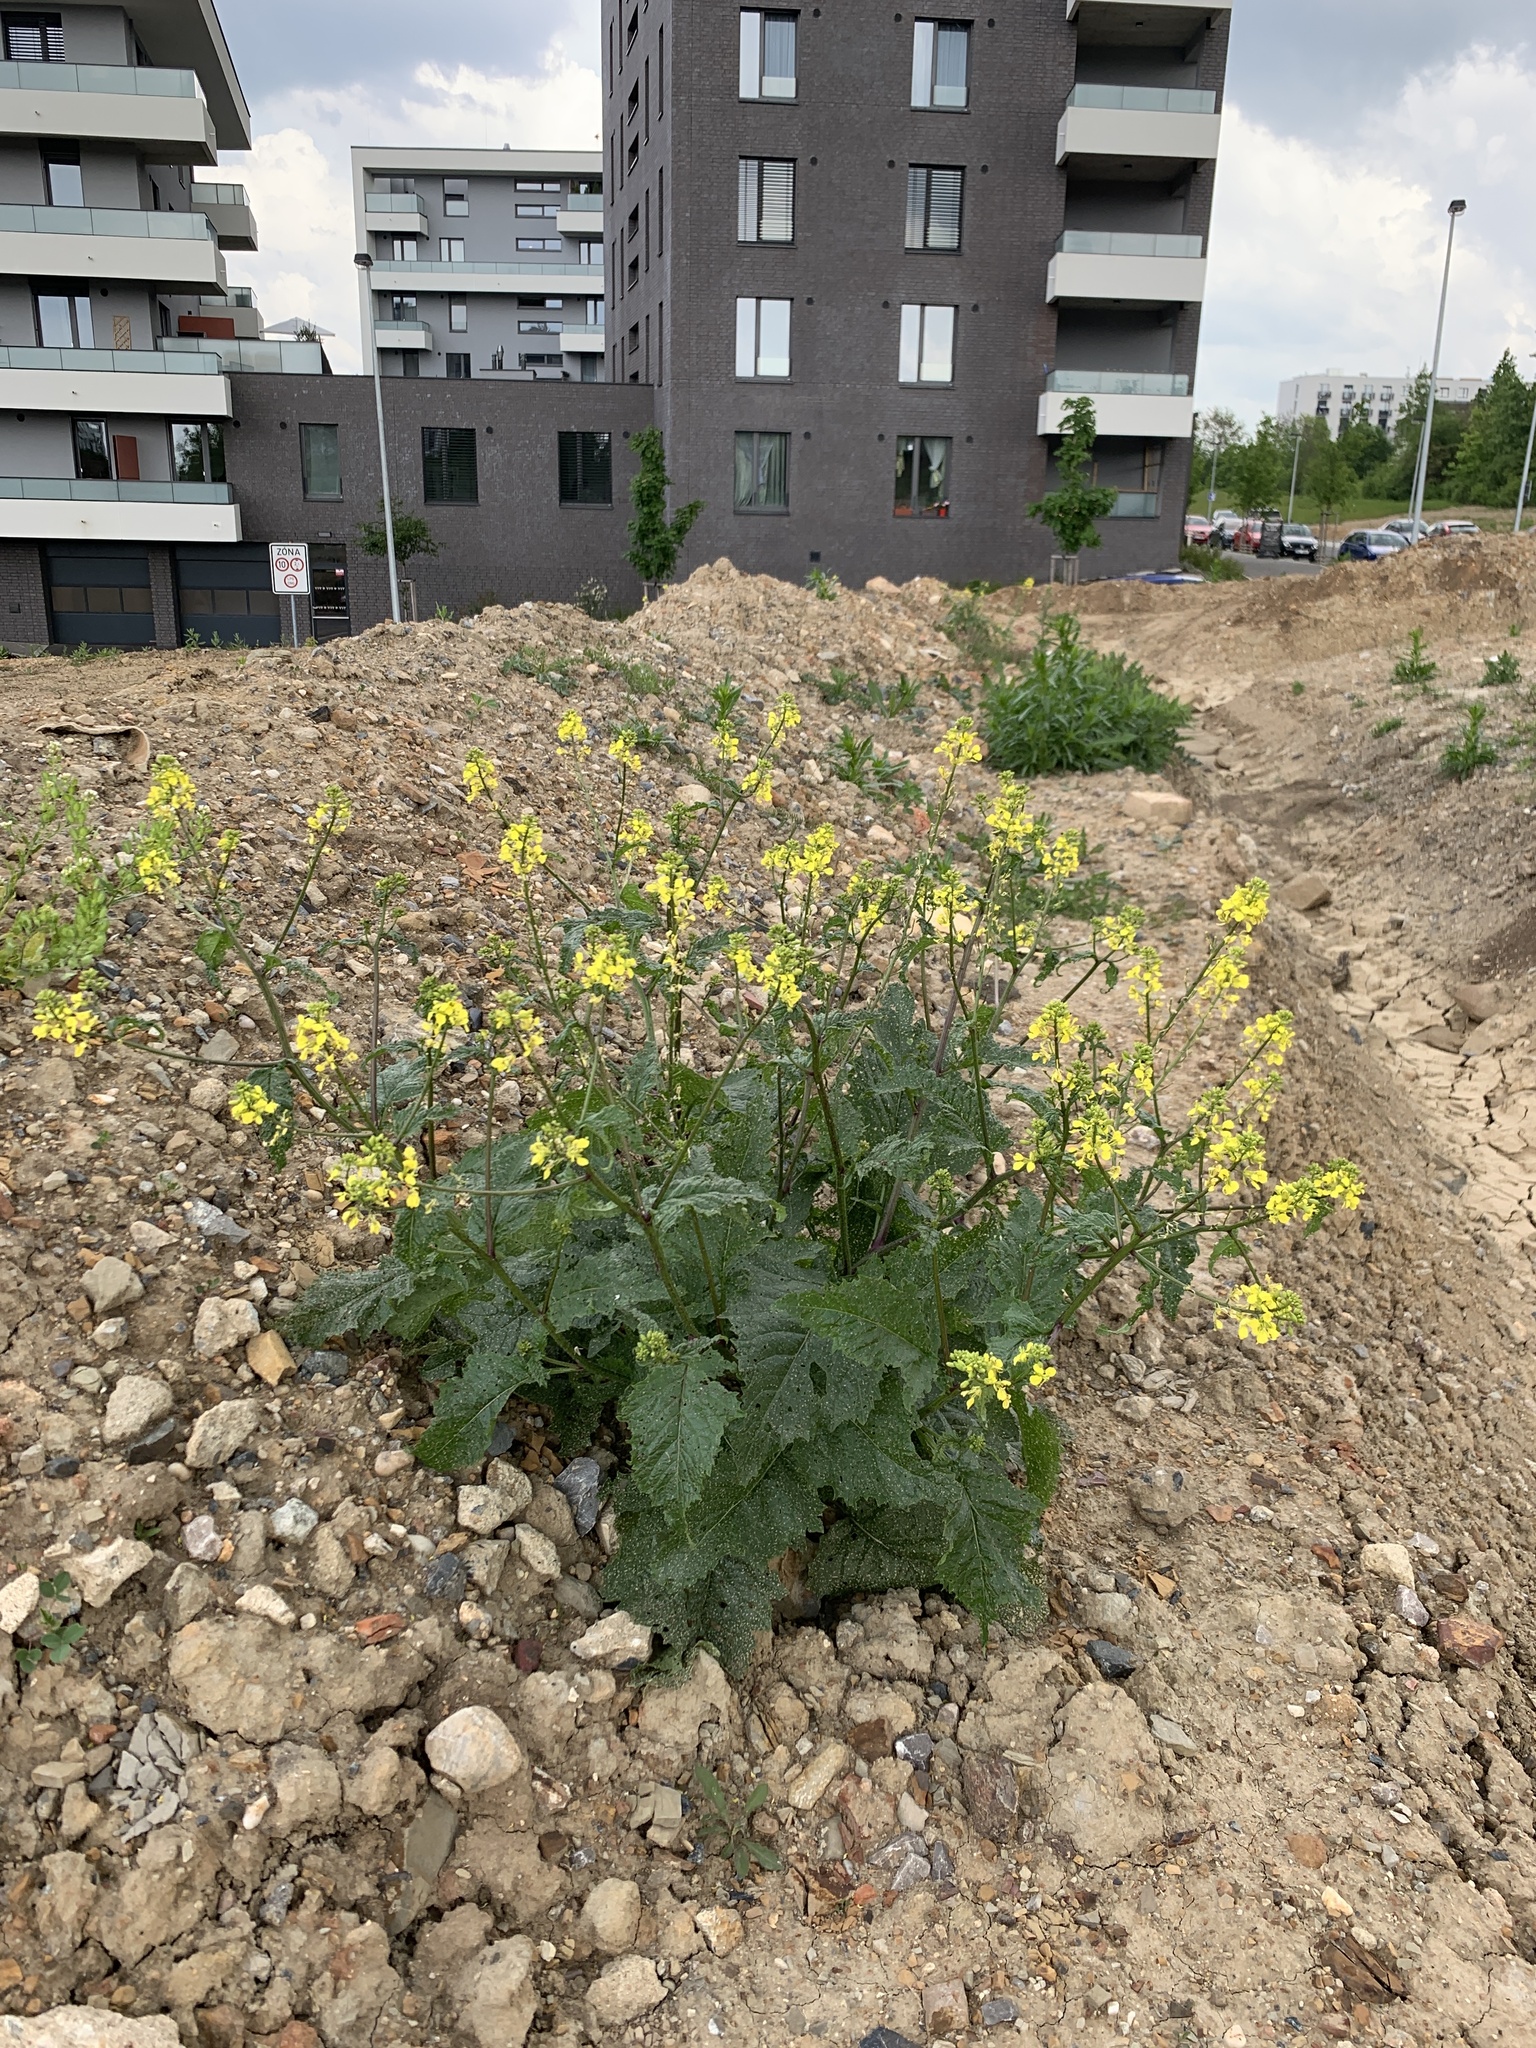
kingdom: Plantae
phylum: Tracheophyta
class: Magnoliopsida
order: Brassicales
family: Brassicaceae
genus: Sinapis
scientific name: Sinapis arvensis
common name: Charlock
